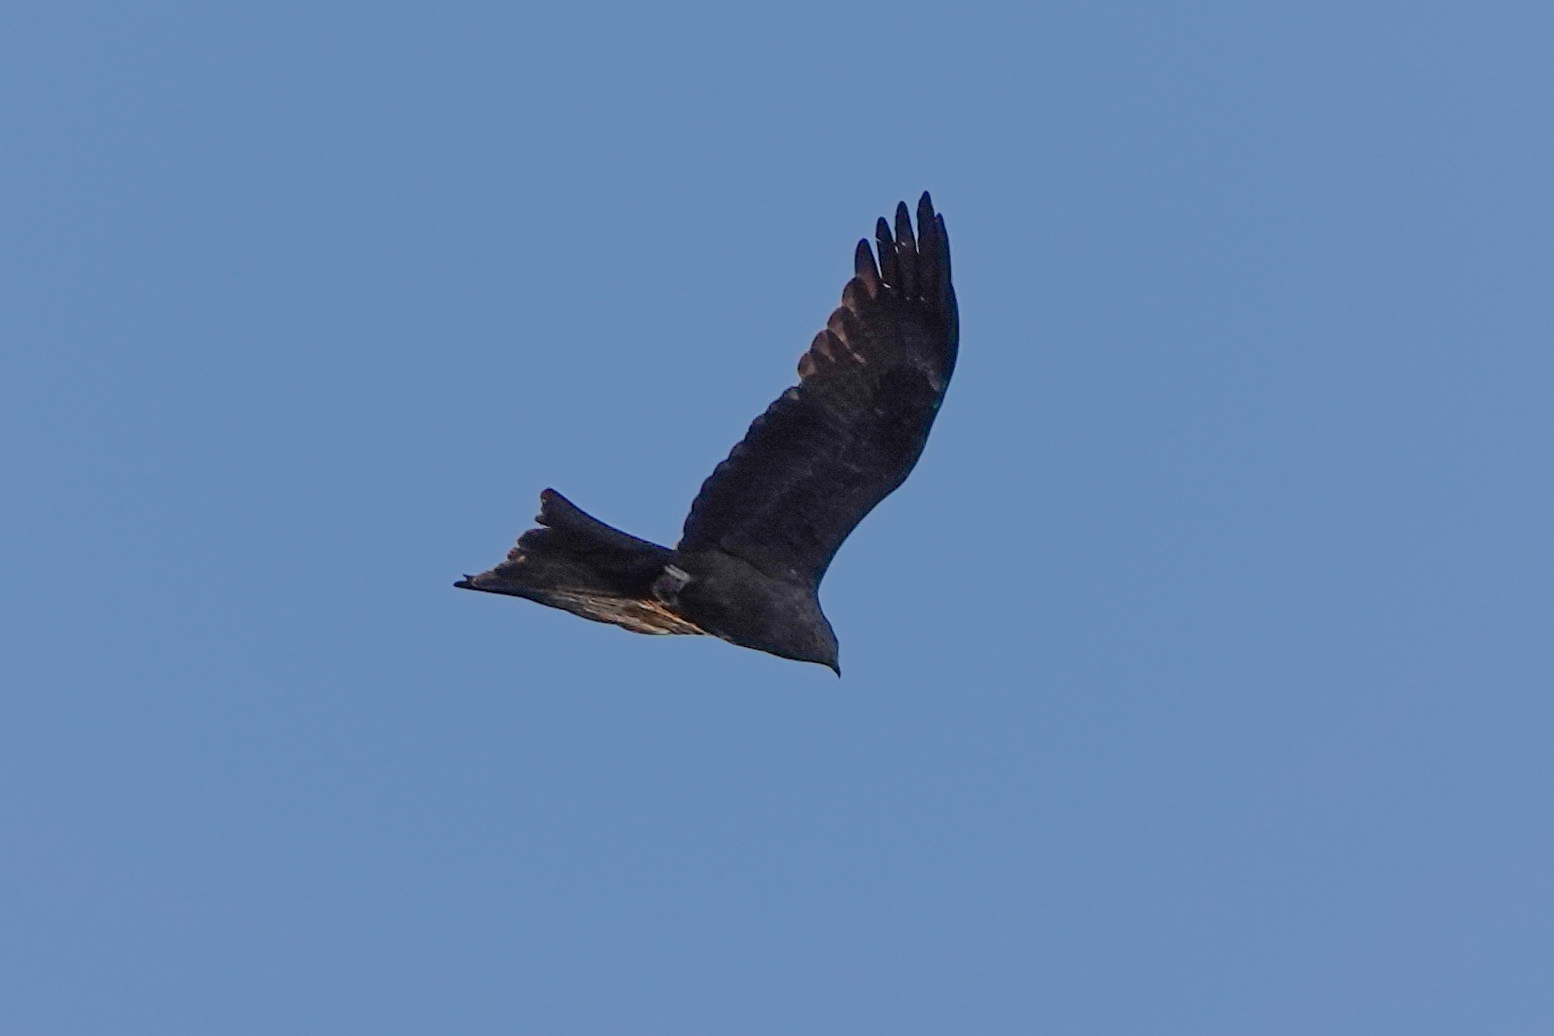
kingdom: Animalia
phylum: Chordata
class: Aves
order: Accipitriformes
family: Accipitridae
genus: Milvus
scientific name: Milvus migrans
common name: Black kite
